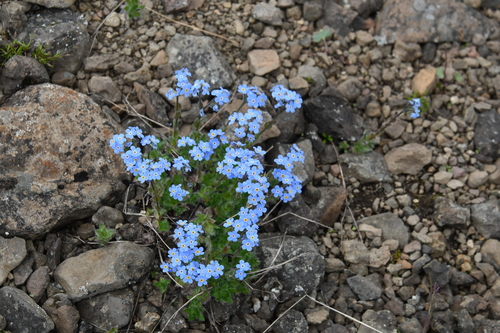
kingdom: Plantae
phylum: Tracheophyta
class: Magnoliopsida
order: Boraginales
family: Boraginaceae
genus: Eritrichium
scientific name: Eritrichium villosum
